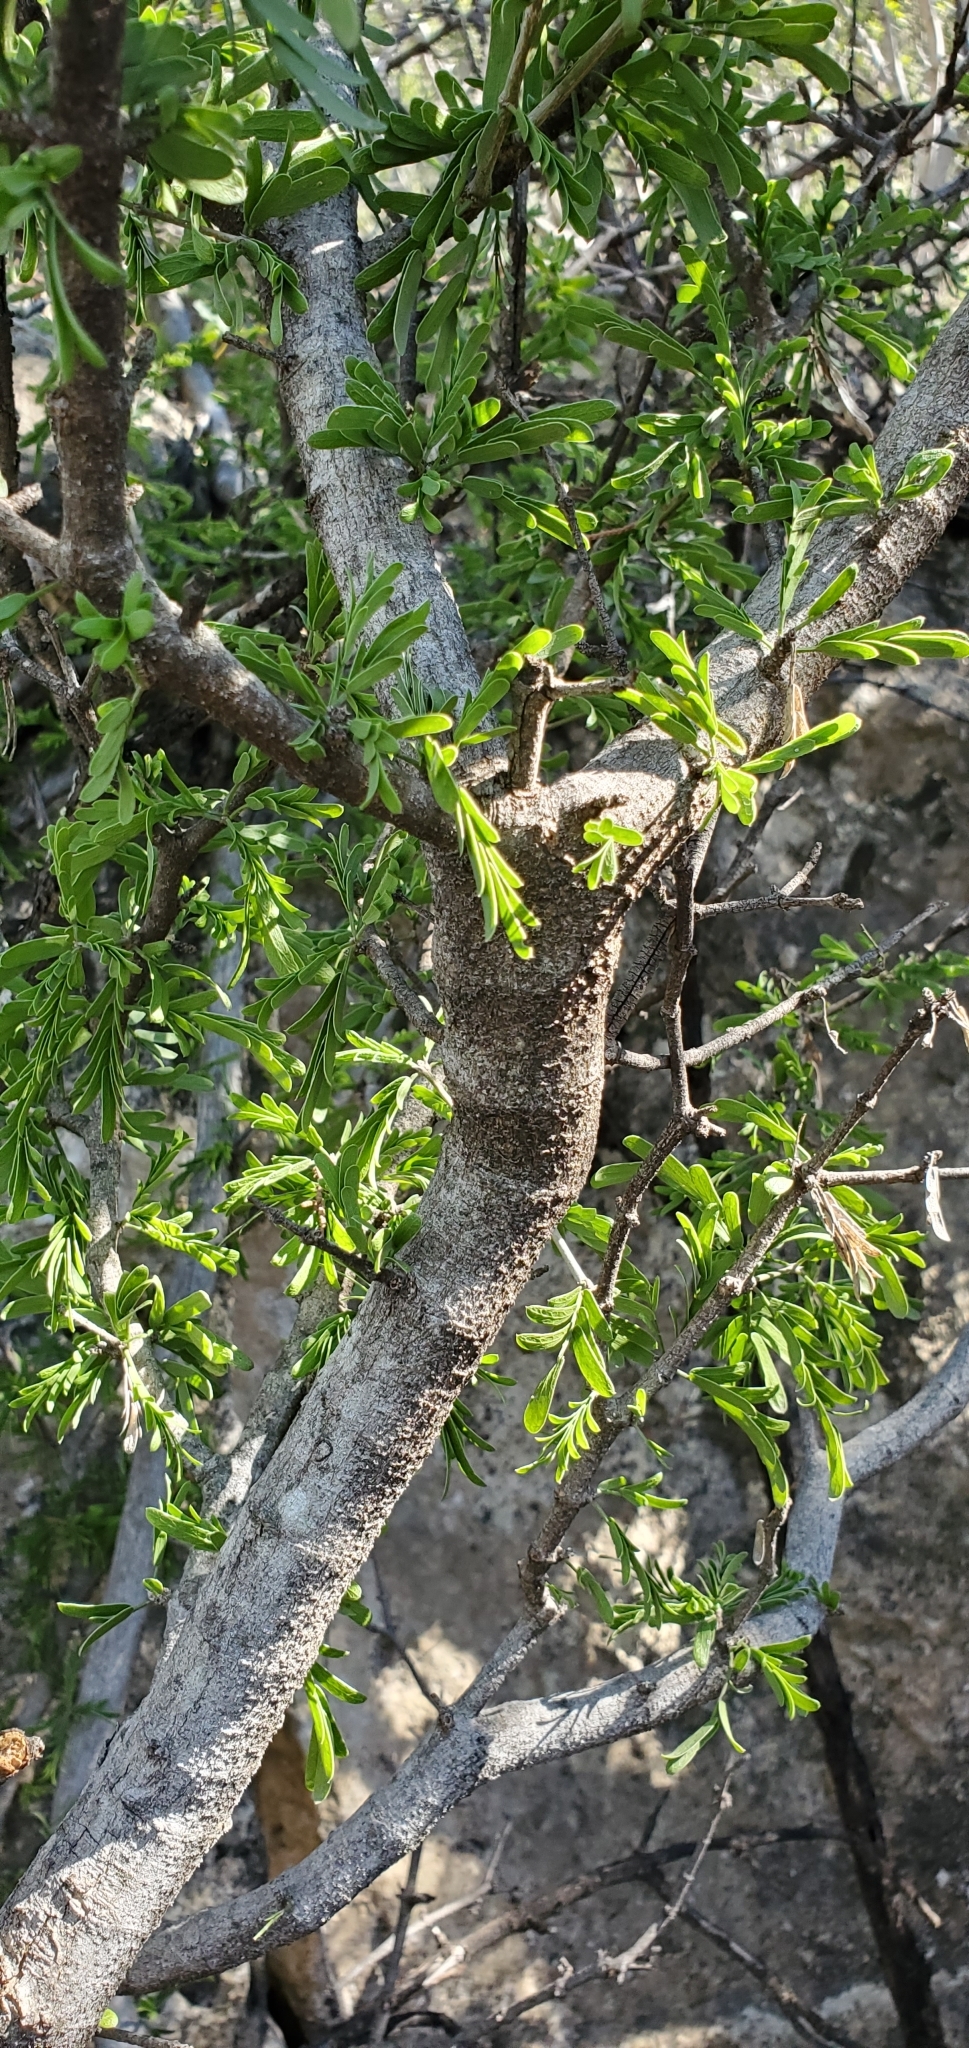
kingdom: Plantae
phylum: Tracheophyta
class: Magnoliopsida
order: Zygophyllales
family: Zygophyllaceae
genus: Porlieria
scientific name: Porlieria angustifolia
